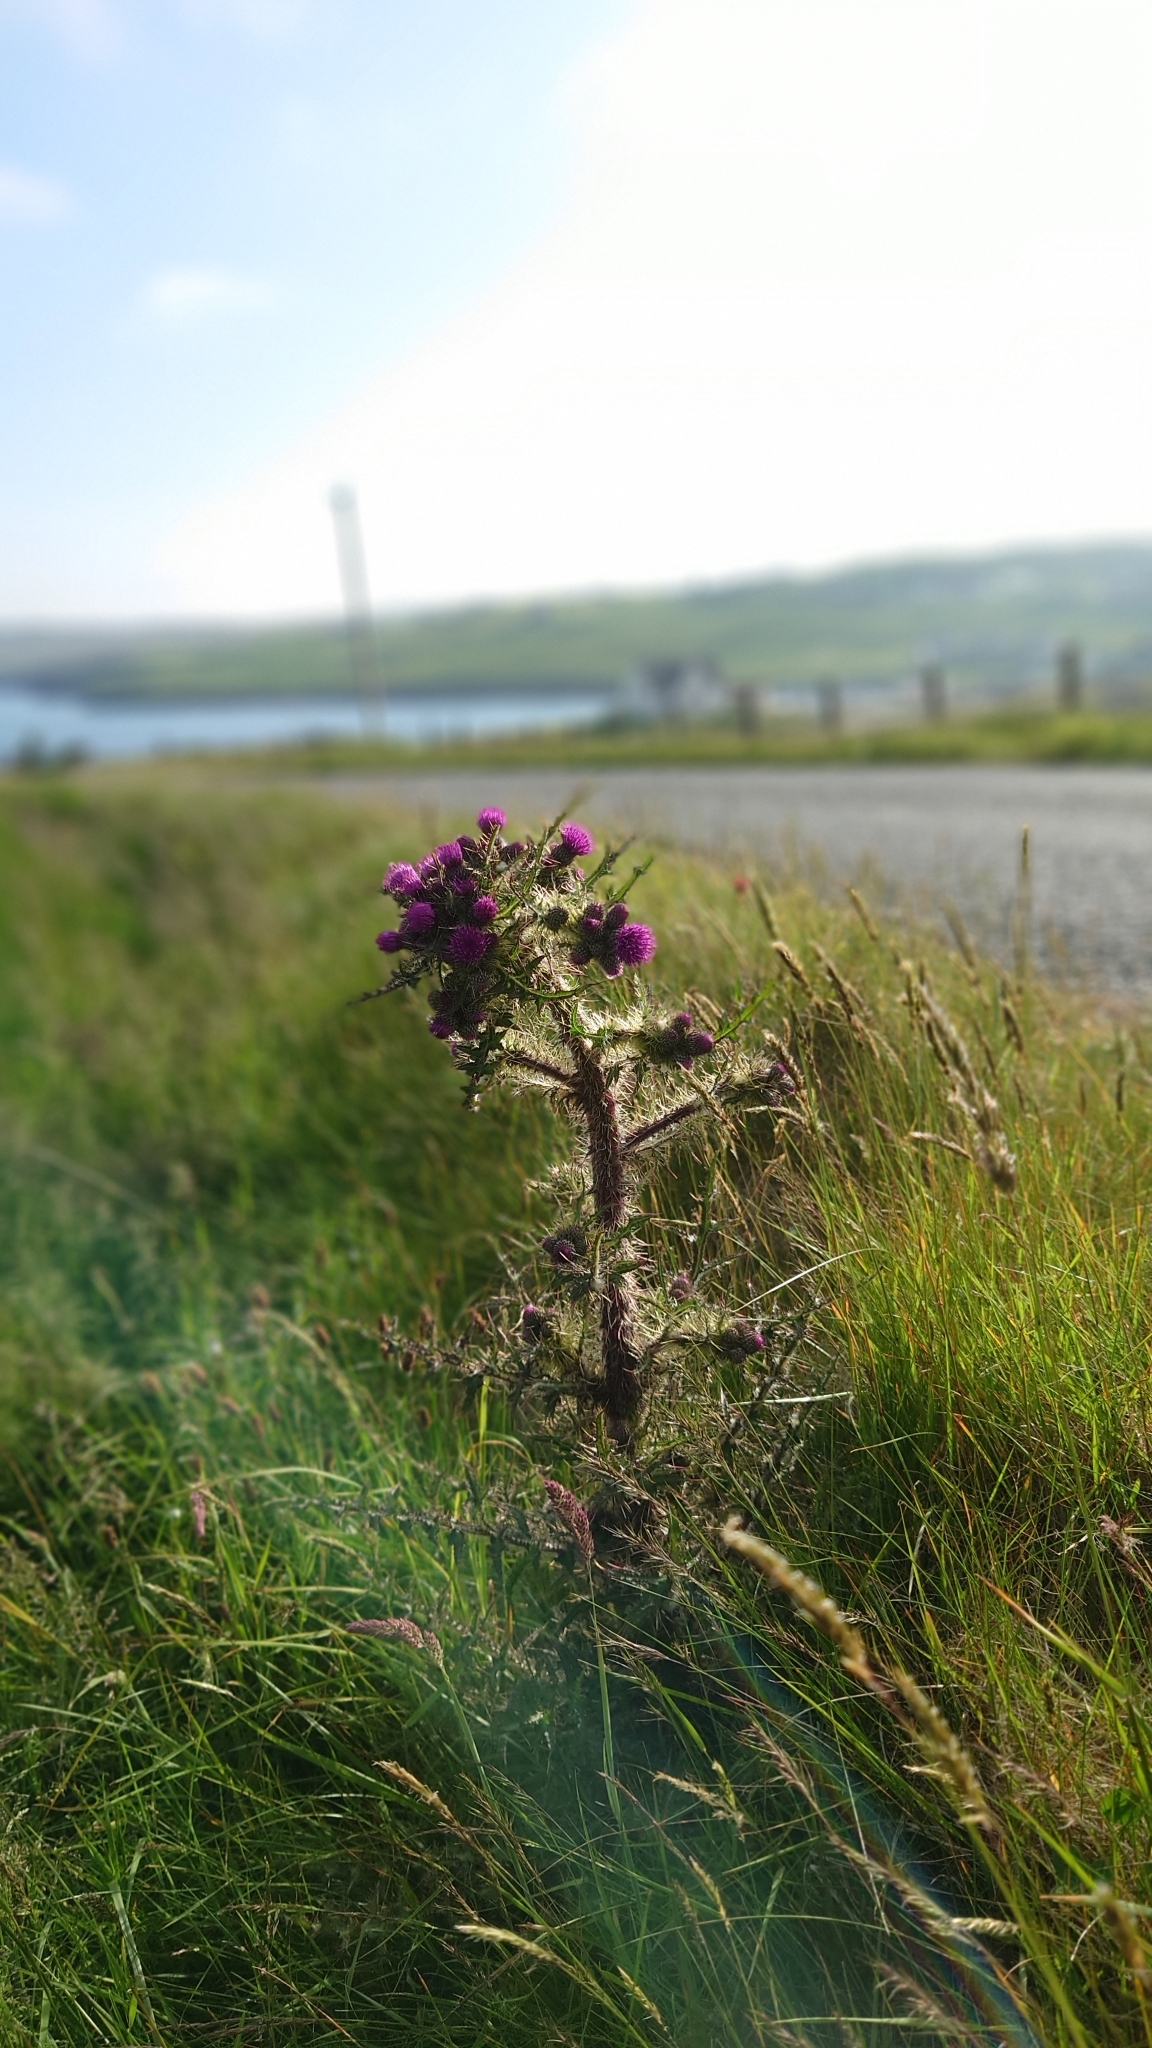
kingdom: Plantae
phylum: Tracheophyta
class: Magnoliopsida
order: Asterales
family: Asteraceae
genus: Cirsium
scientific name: Cirsium palustre
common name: Marsh thistle
